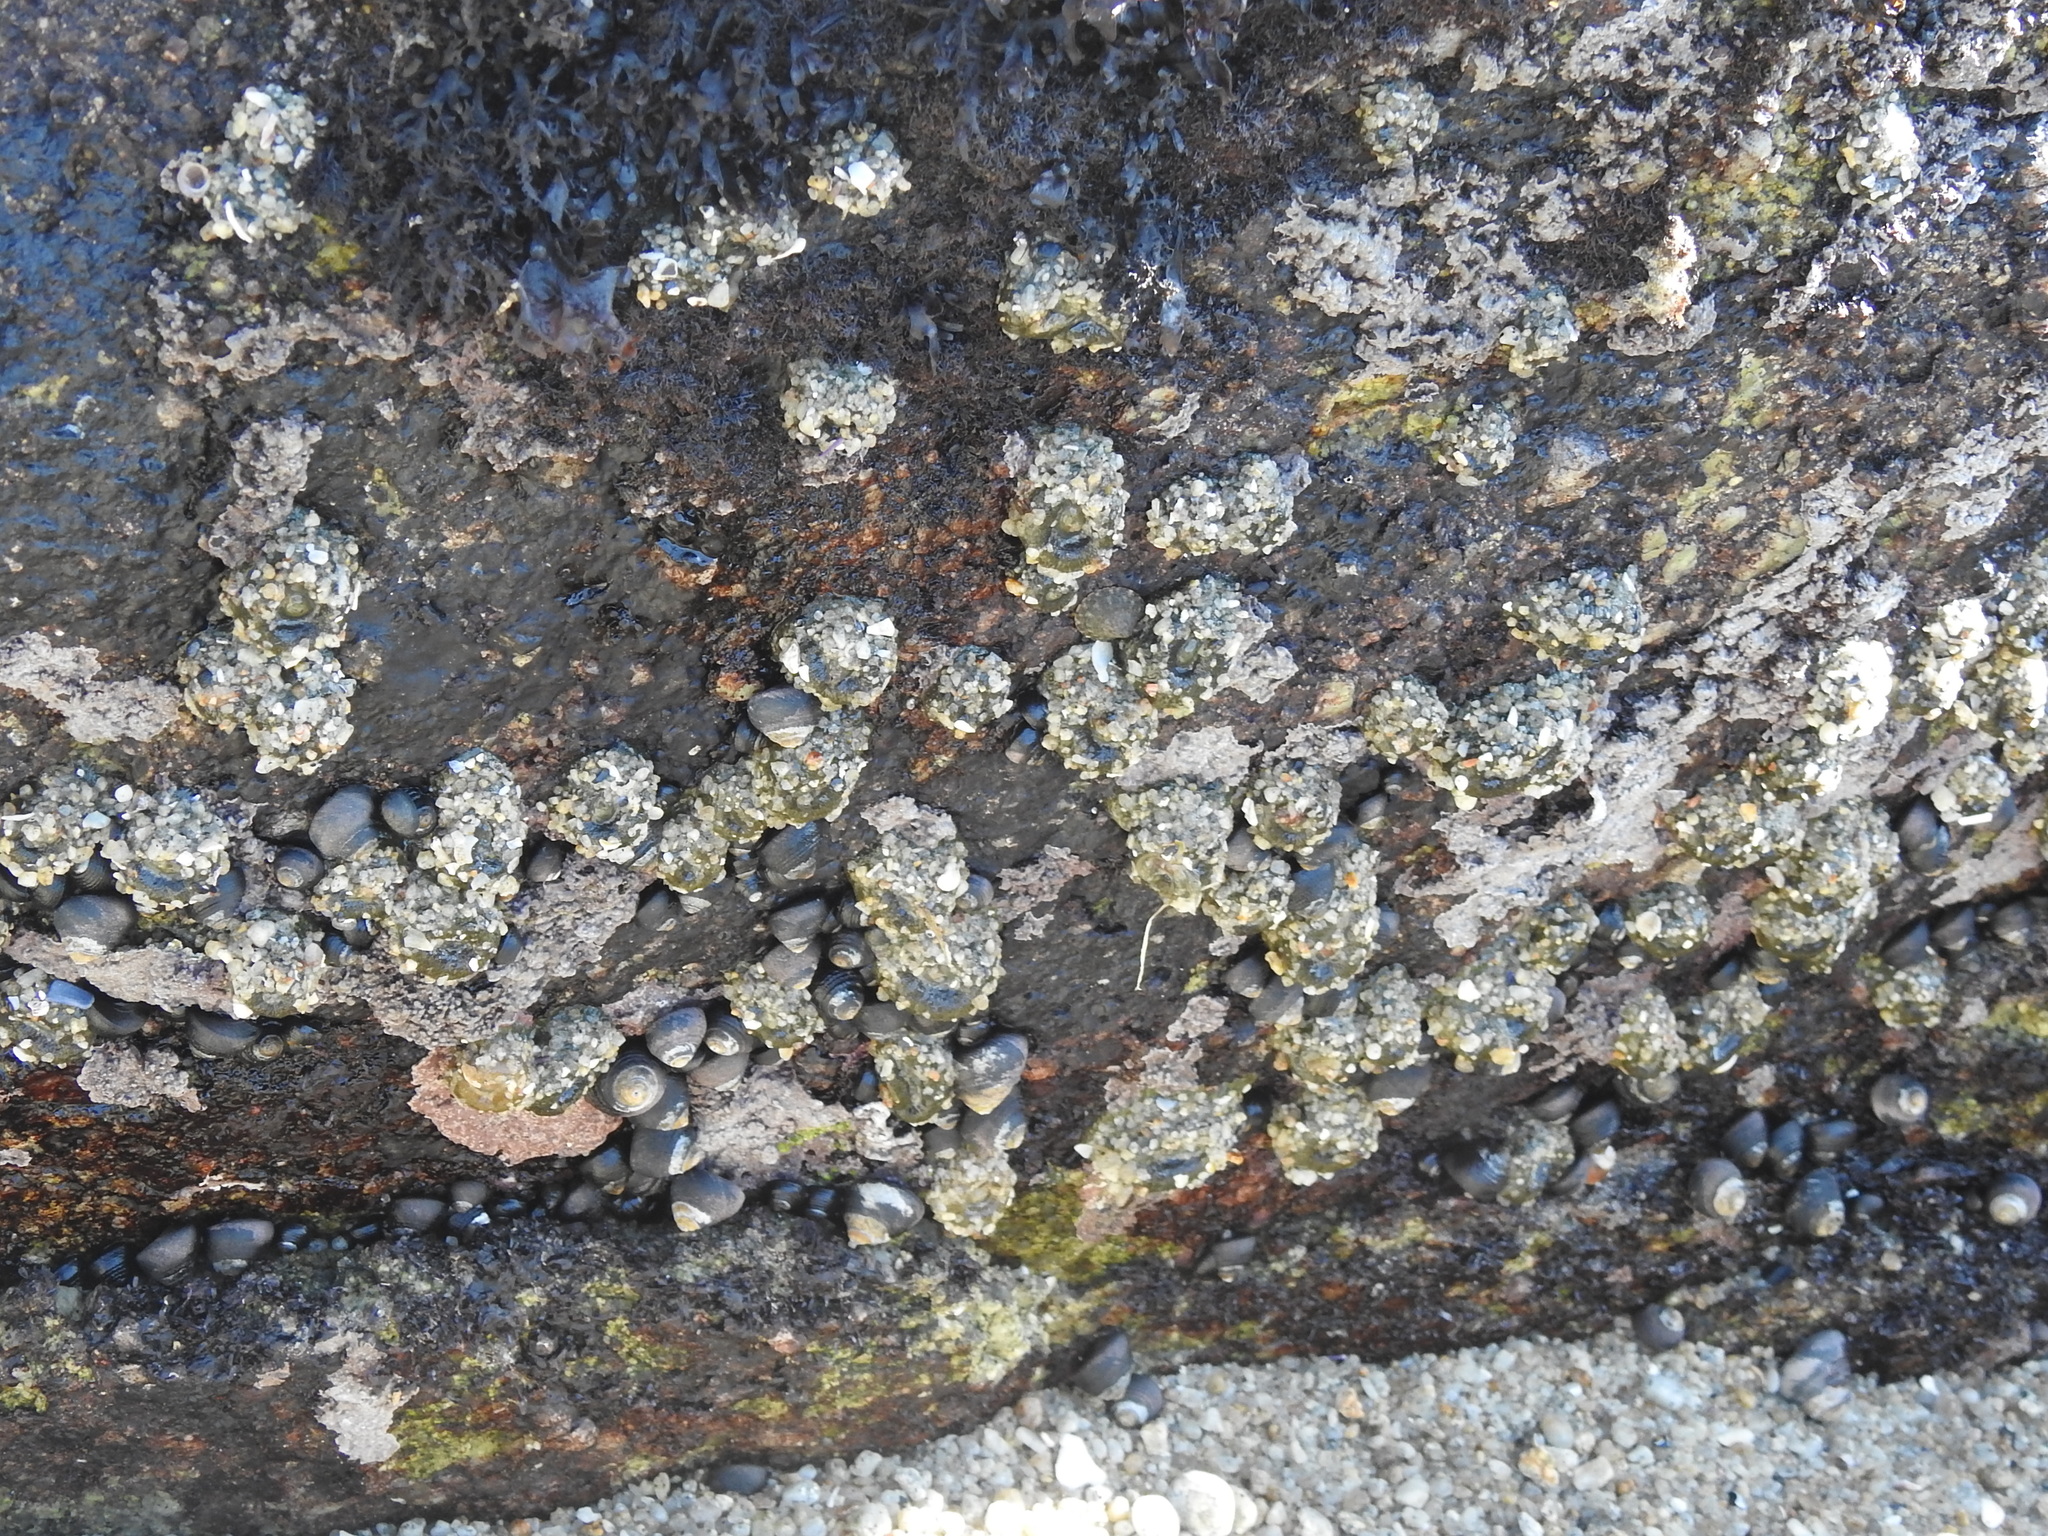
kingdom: Animalia
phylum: Cnidaria
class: Anthozoa
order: Actiniaria
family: Actiniidae
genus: Anthopleura
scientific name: Anthopleura elegantissima
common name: Clonal anemone
